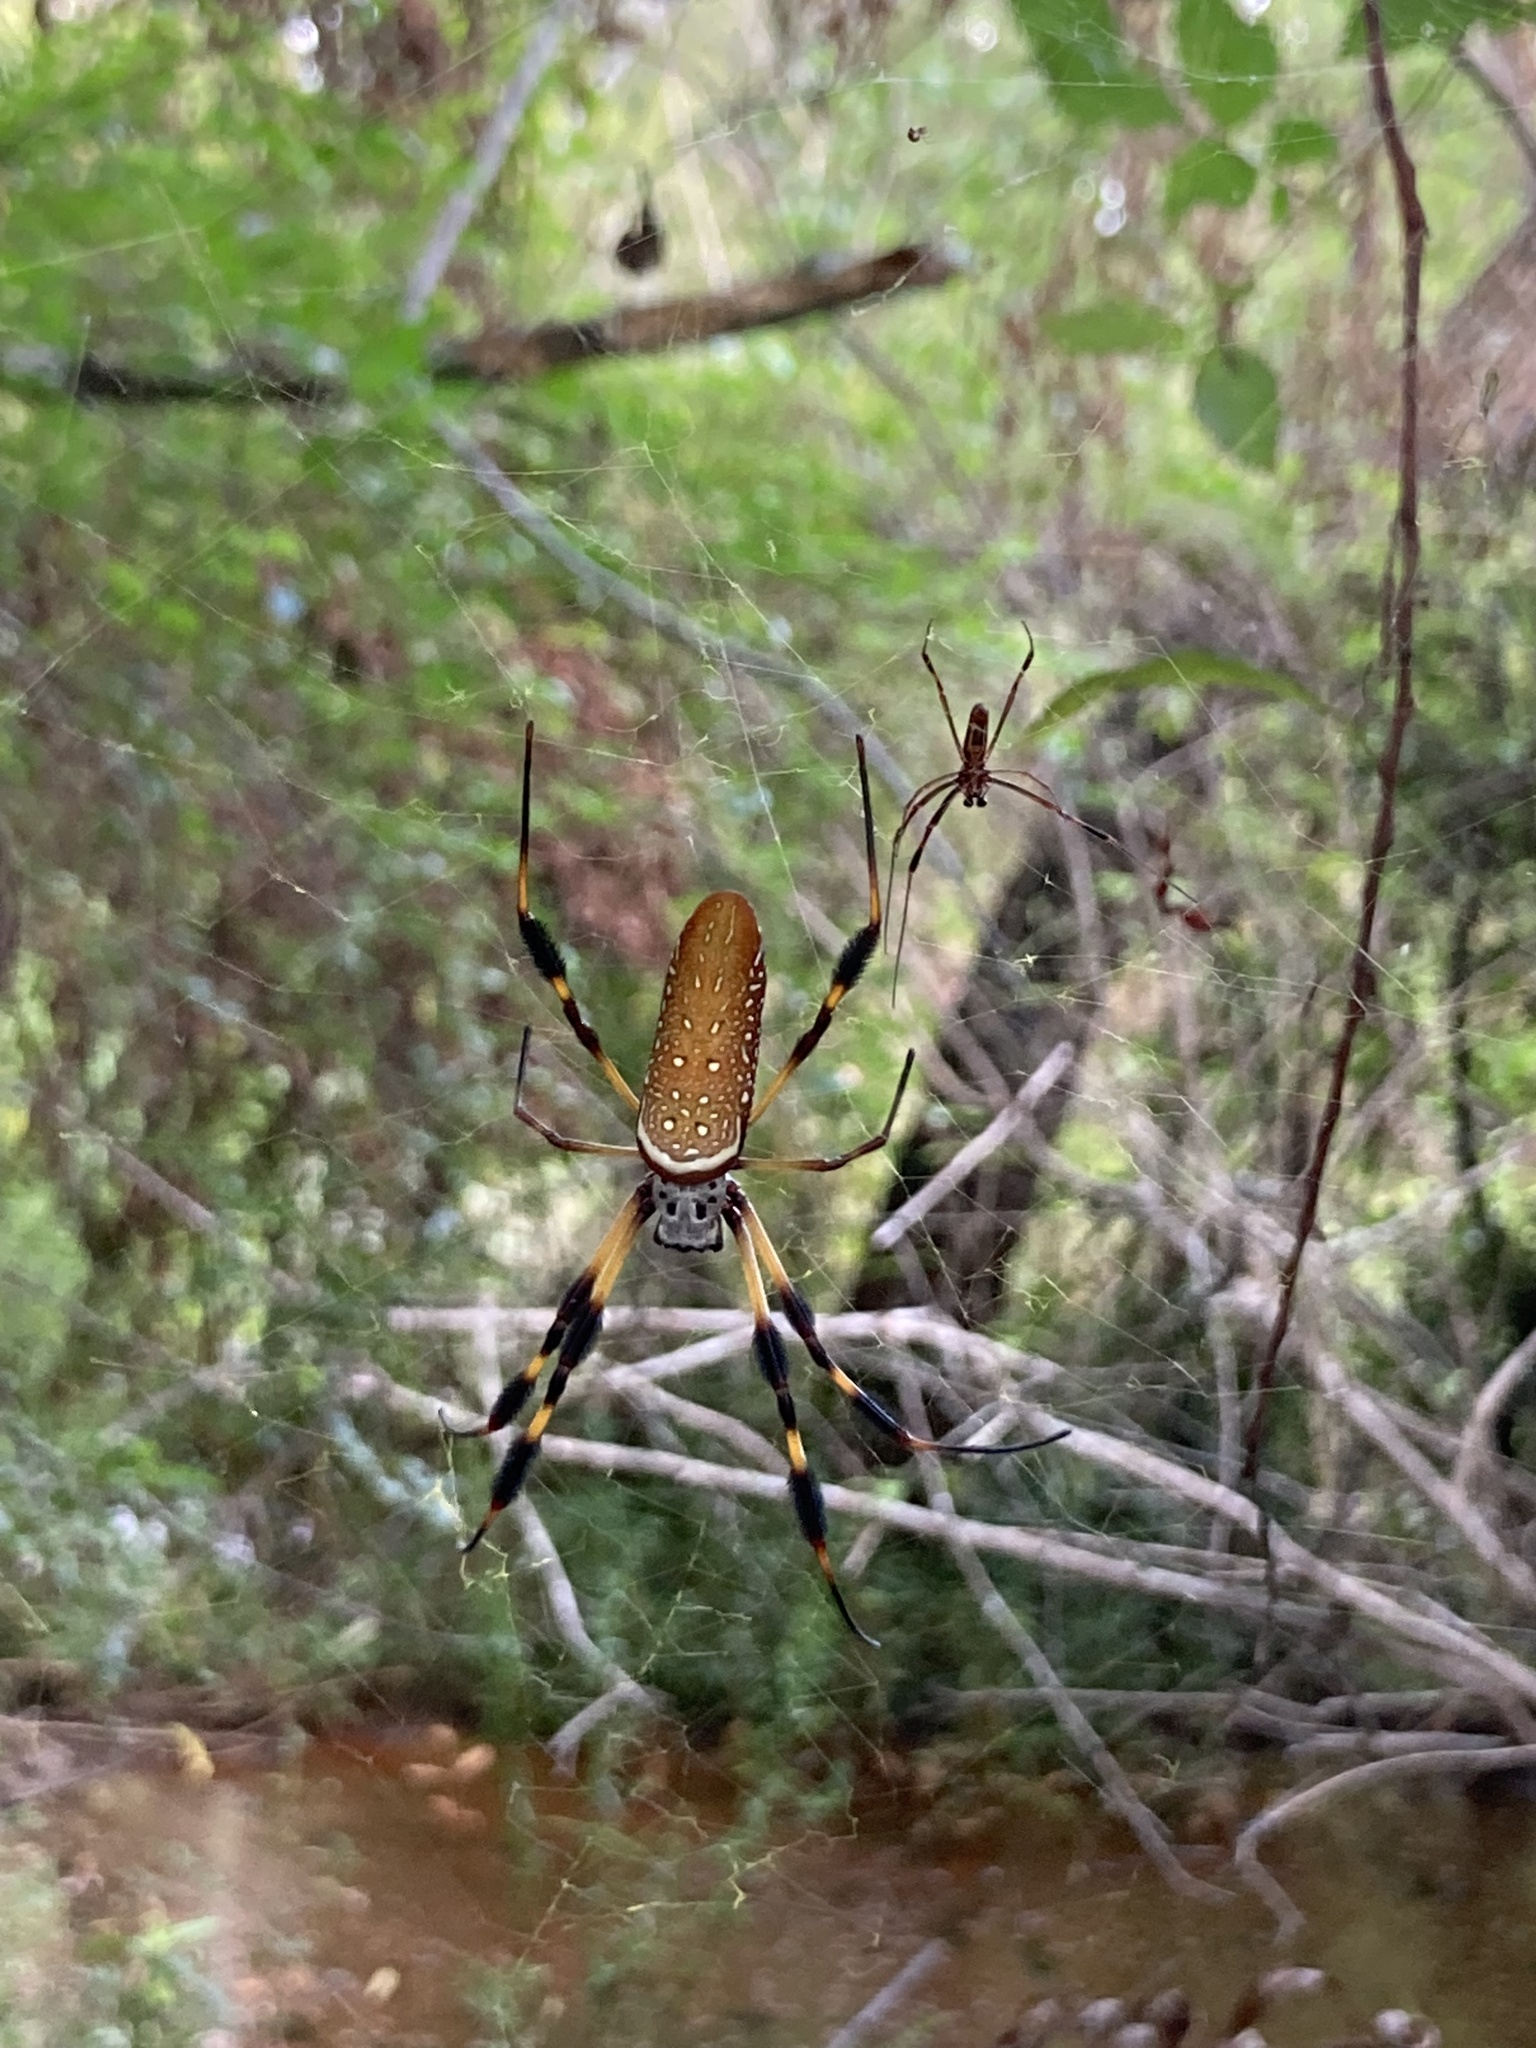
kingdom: Animalia
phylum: Arthropoda
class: Arachnida
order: Araneae
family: Araneidae
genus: Trichonephila
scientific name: Trichonephila clavipes
